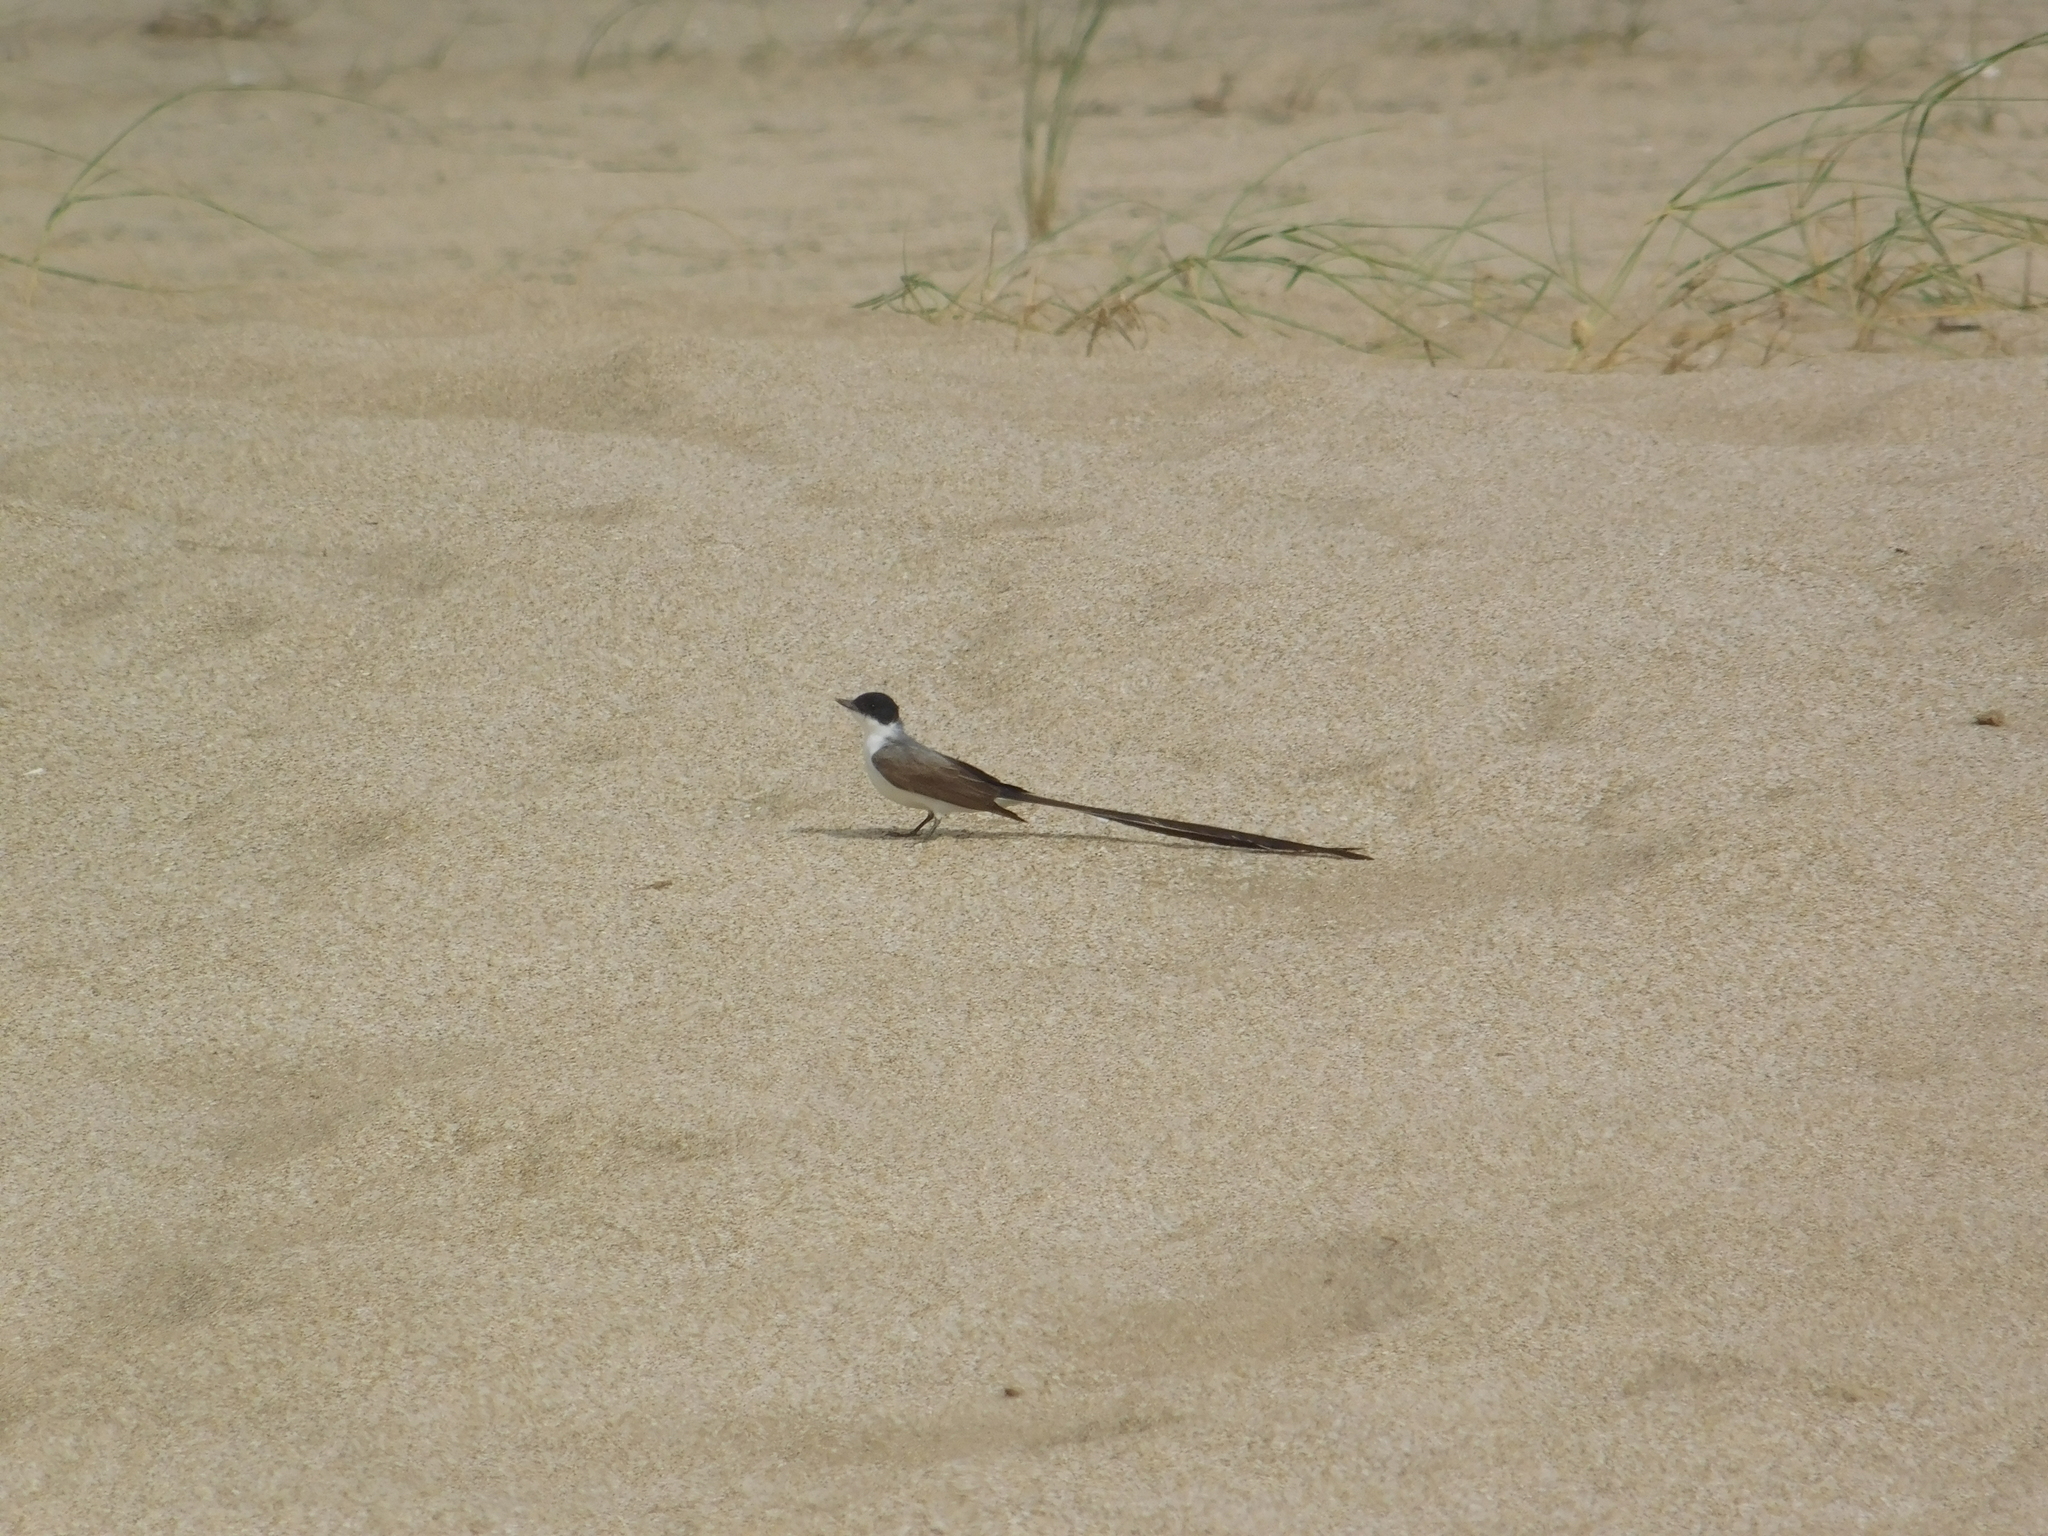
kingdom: Animalia
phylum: Chordata
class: Aves
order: Passeriformes
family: Tyrannidae
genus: Tyrannus
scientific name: Tyrannus savana
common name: Fork-tailed flycatcher
